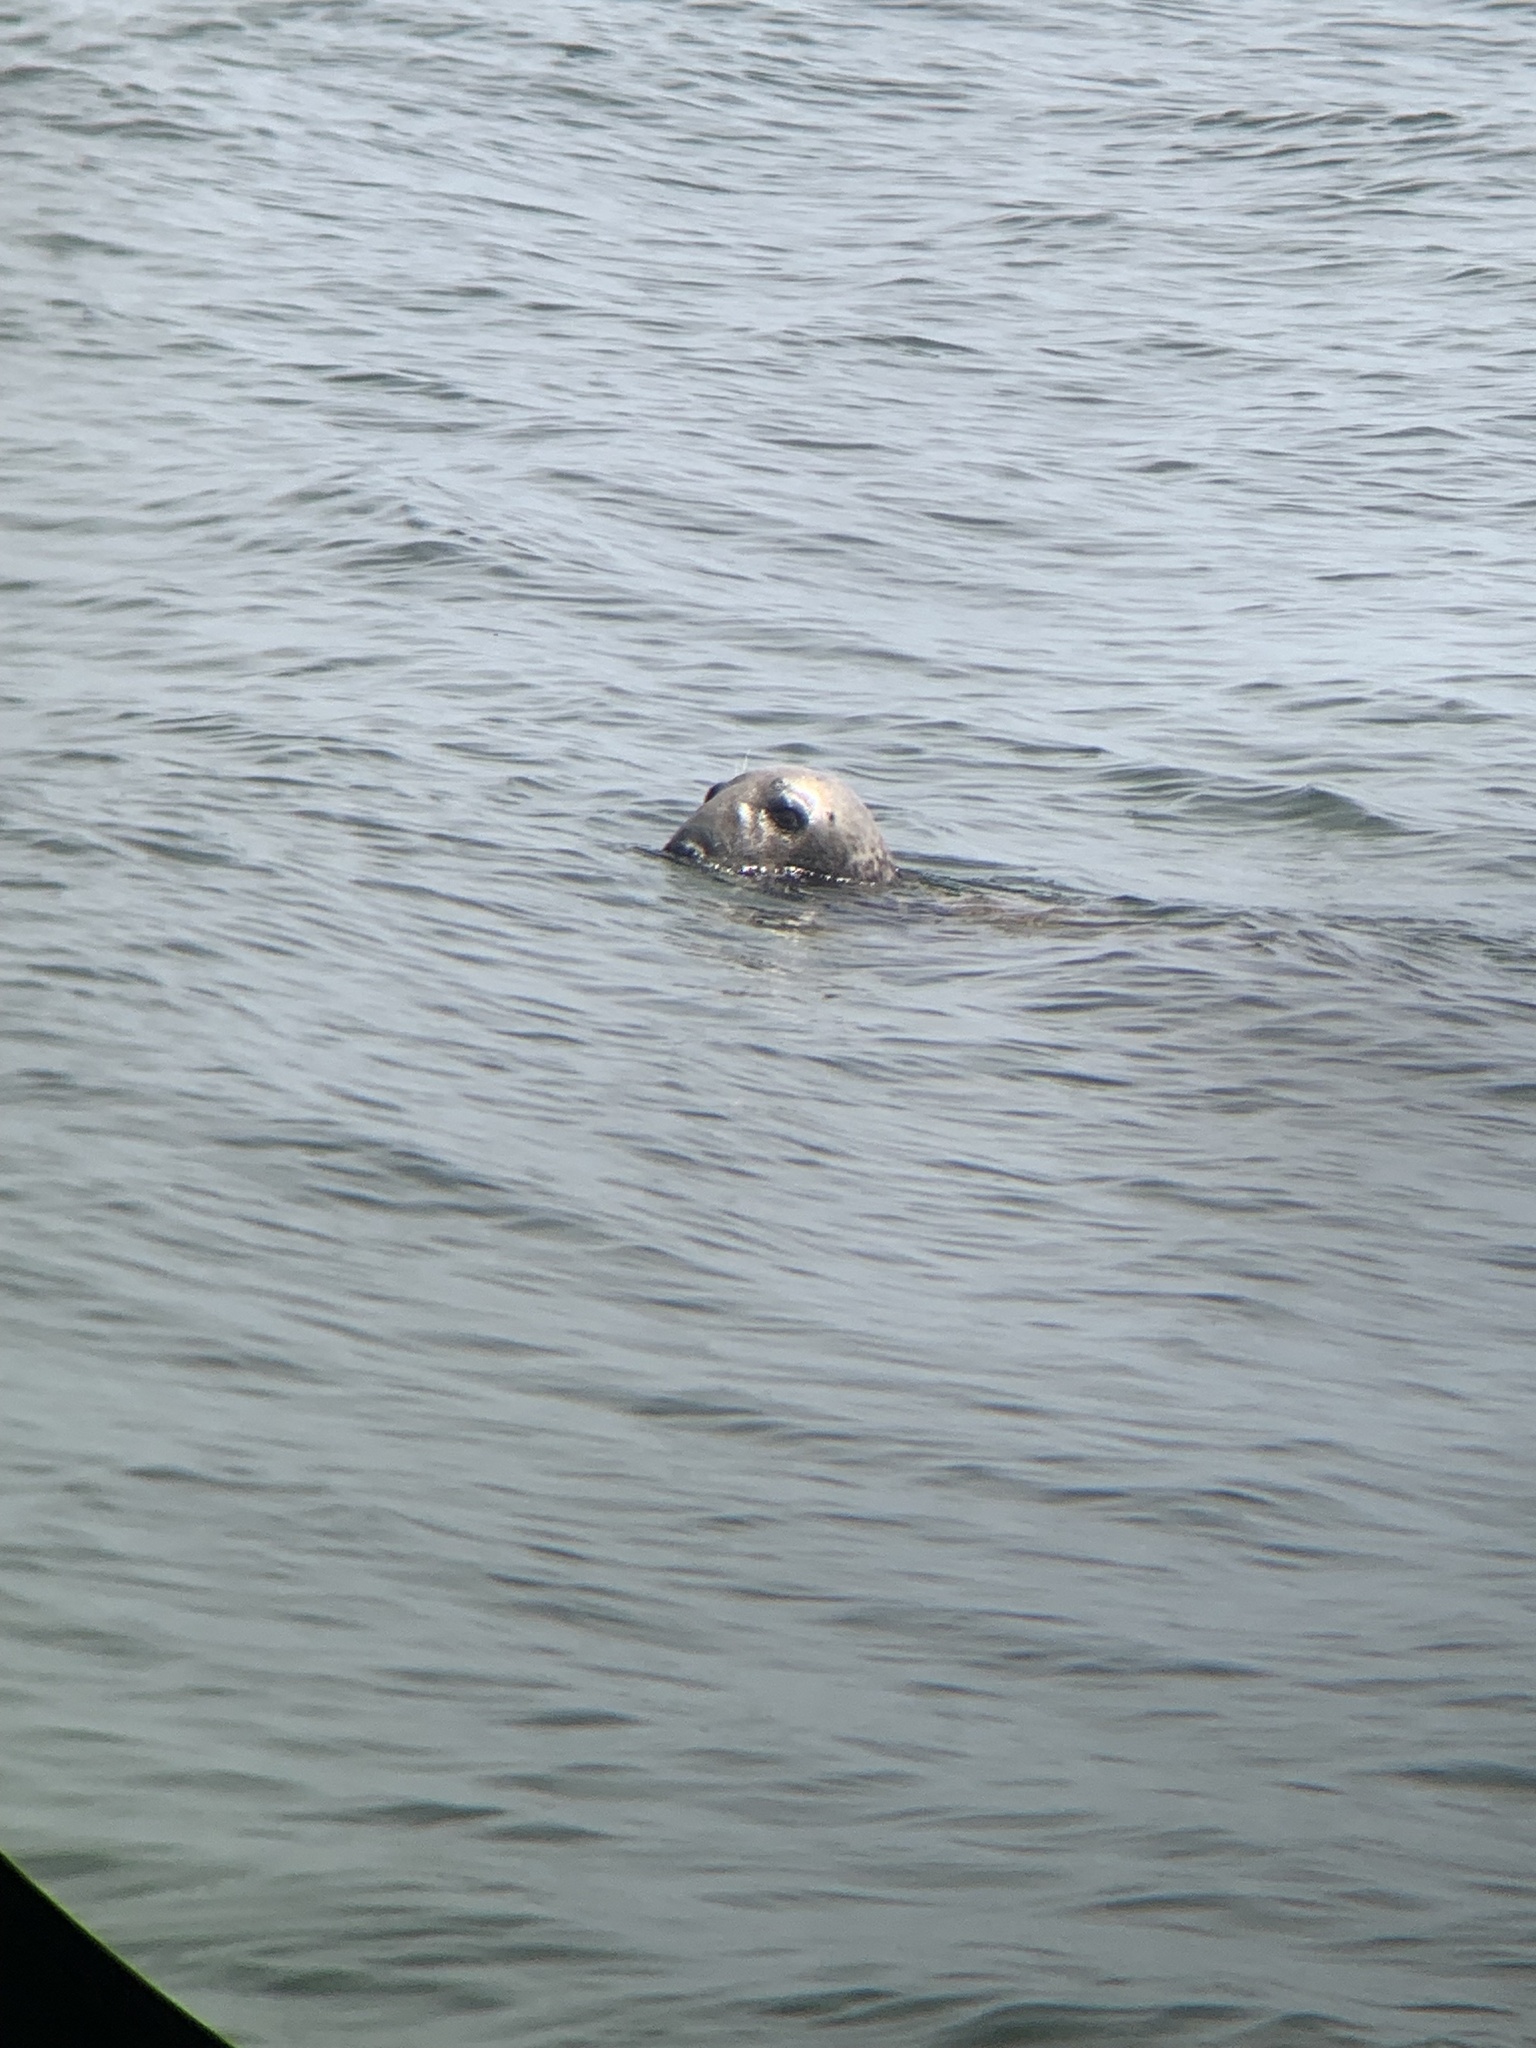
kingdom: Animalia
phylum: Chordata
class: Mammalia
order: Carnivora
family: Phocidae
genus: Halichoerus
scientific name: Halichoerus grypus
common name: Grey seal
